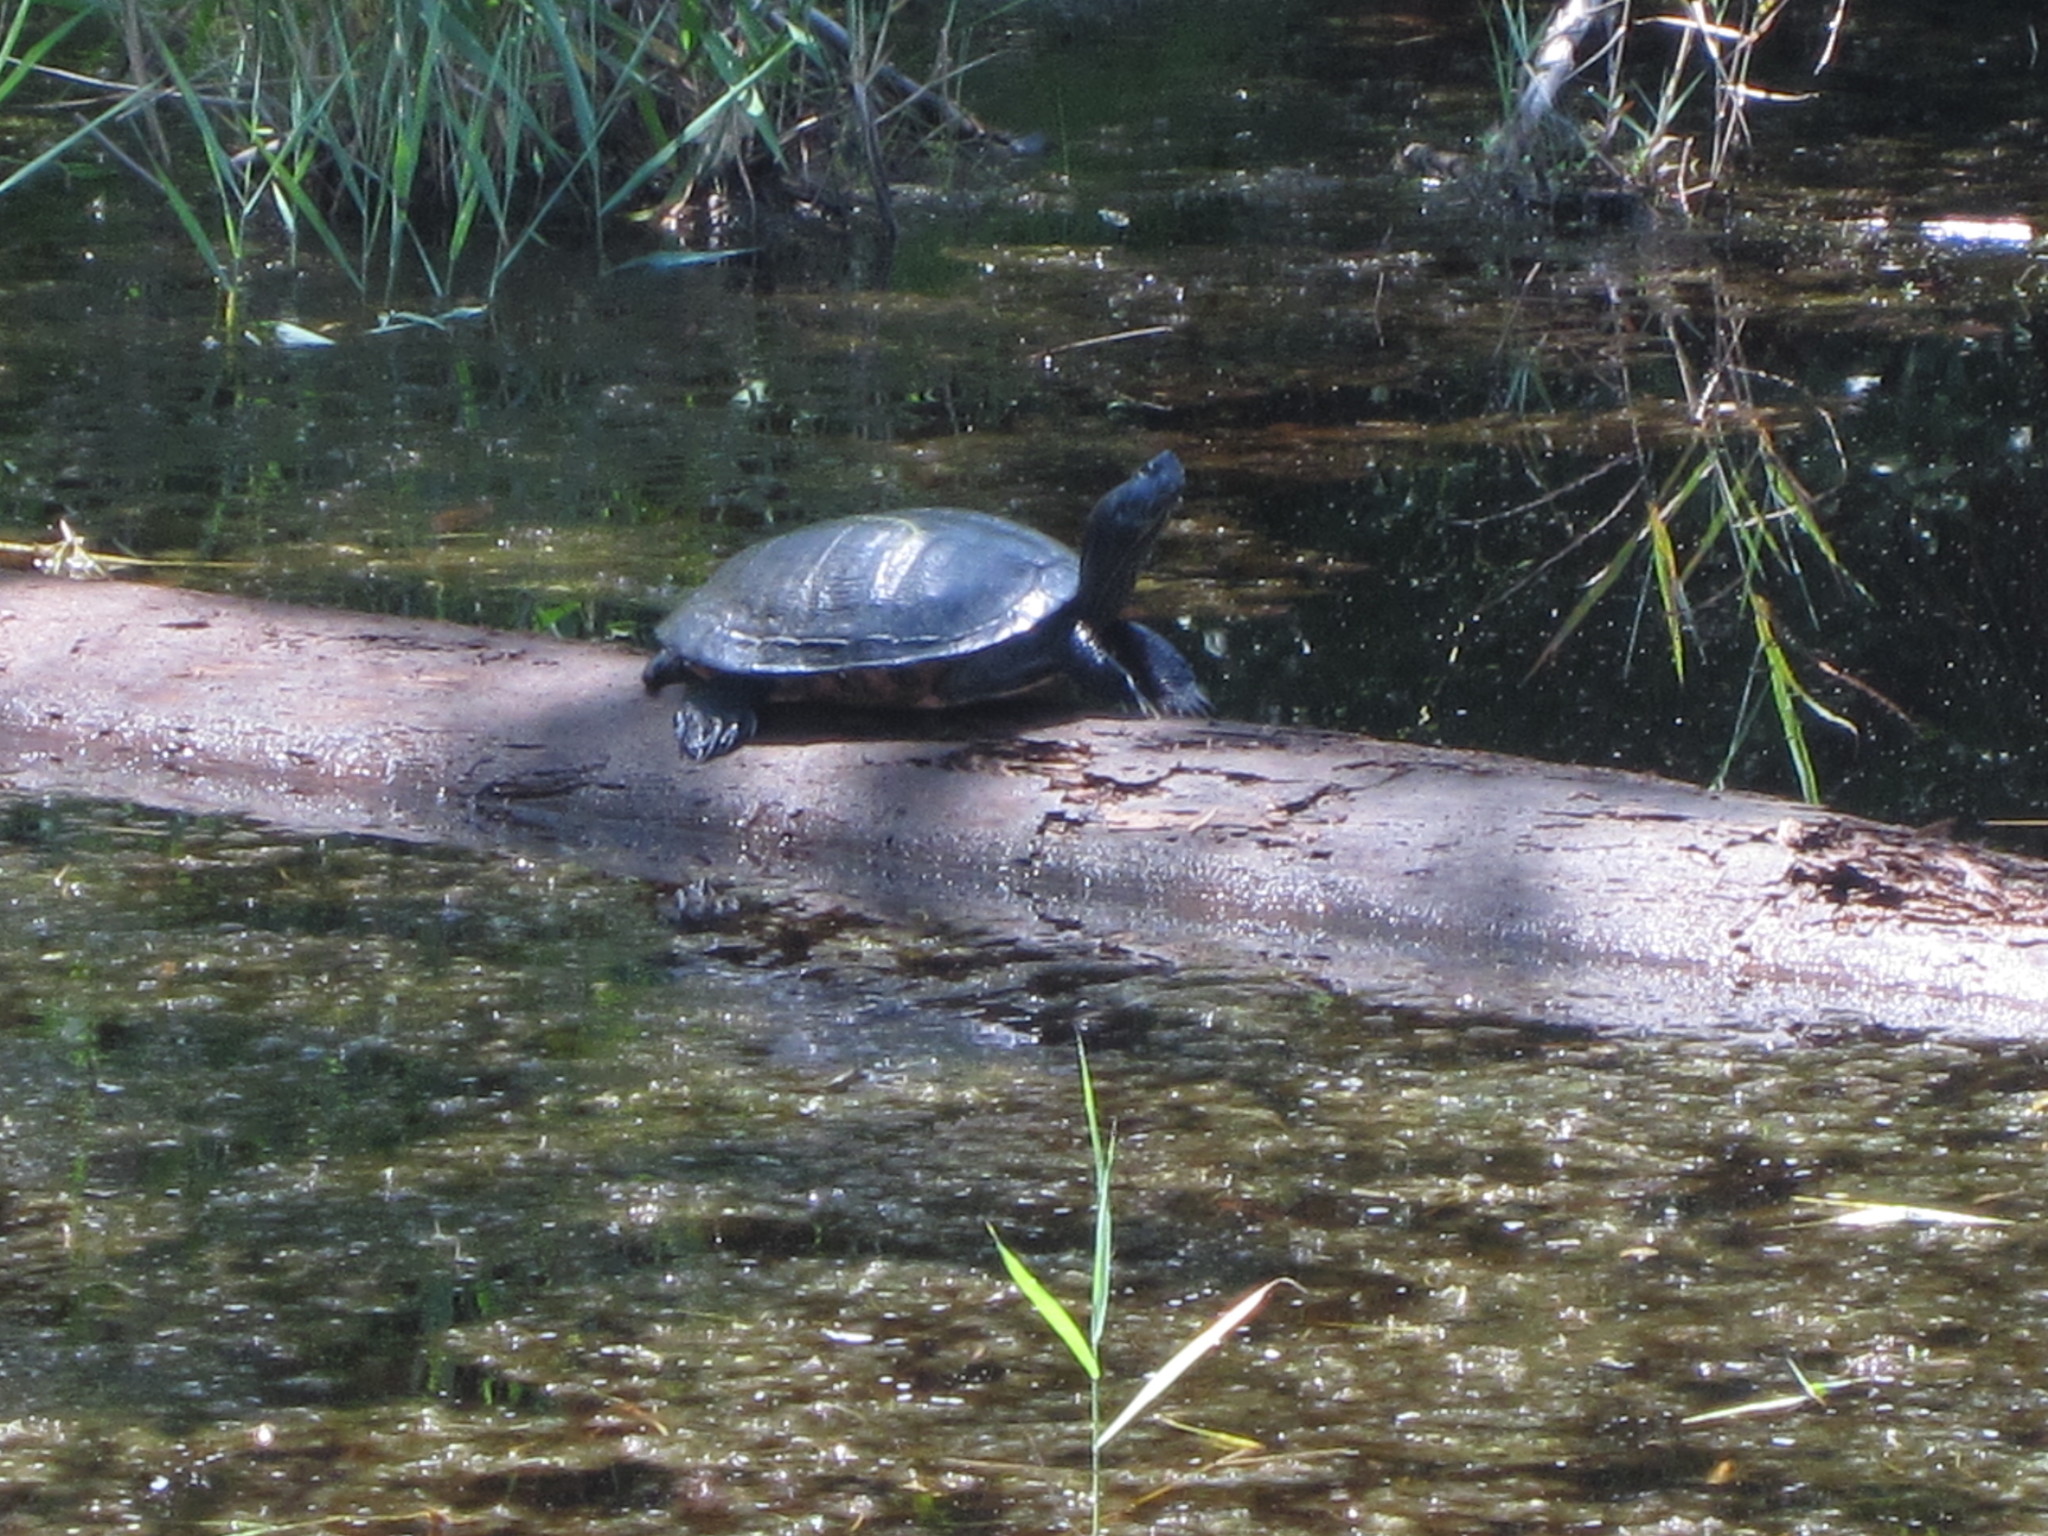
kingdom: Animalia
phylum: Chordata
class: Testudines
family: Emydidae
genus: Trachemys
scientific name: Trachemys scripta
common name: Slider
